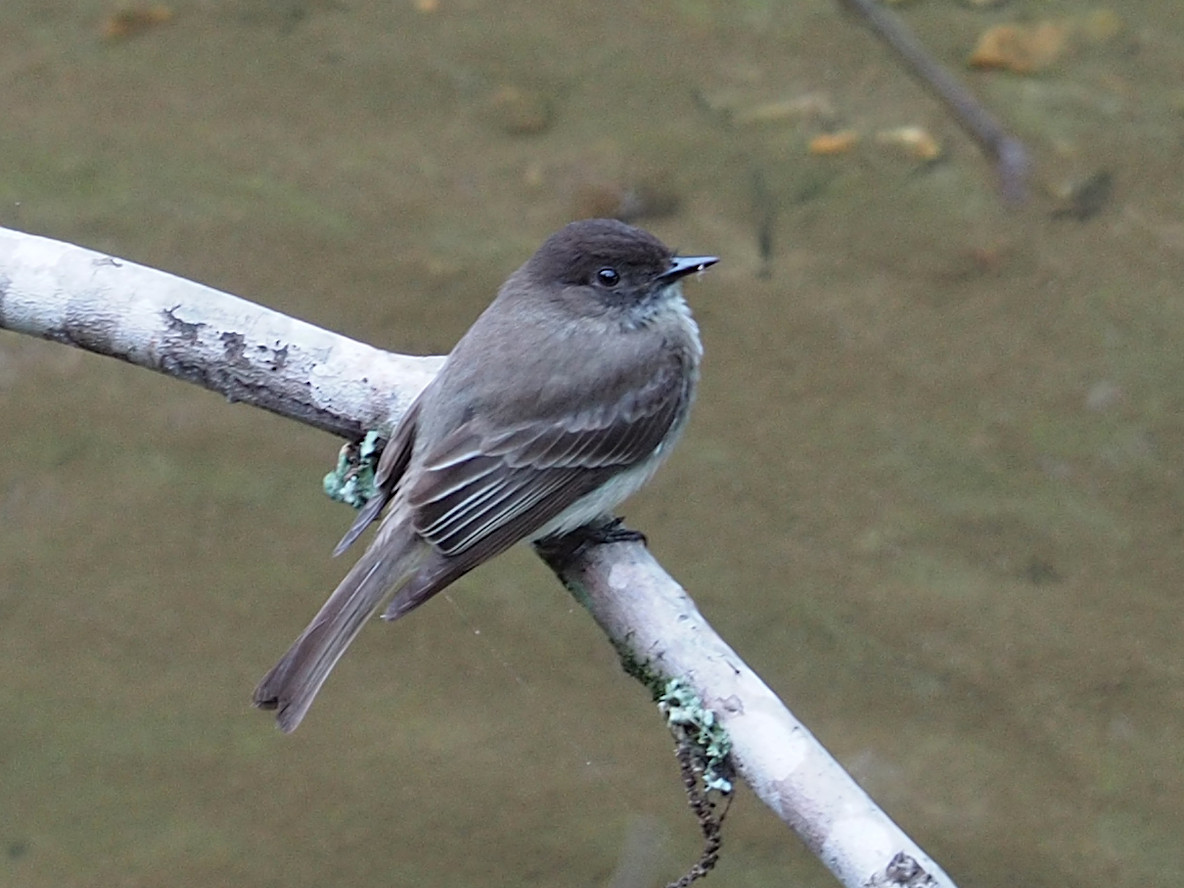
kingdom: Animalia
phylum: Chordata
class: Aves
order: Passeriformes
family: Tyrannidae
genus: Sayornis
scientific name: Sayornis phoebe
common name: Eastern phoebe
